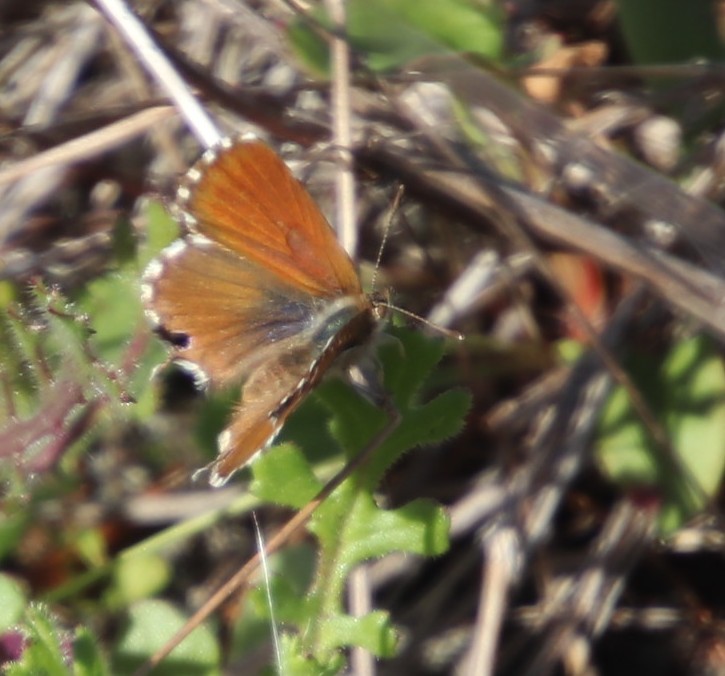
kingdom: Animalia
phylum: Arthropoda
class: Insecta
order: Lepidoptera
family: Lycaenidae
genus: Cacyreus
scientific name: Cacyreus
